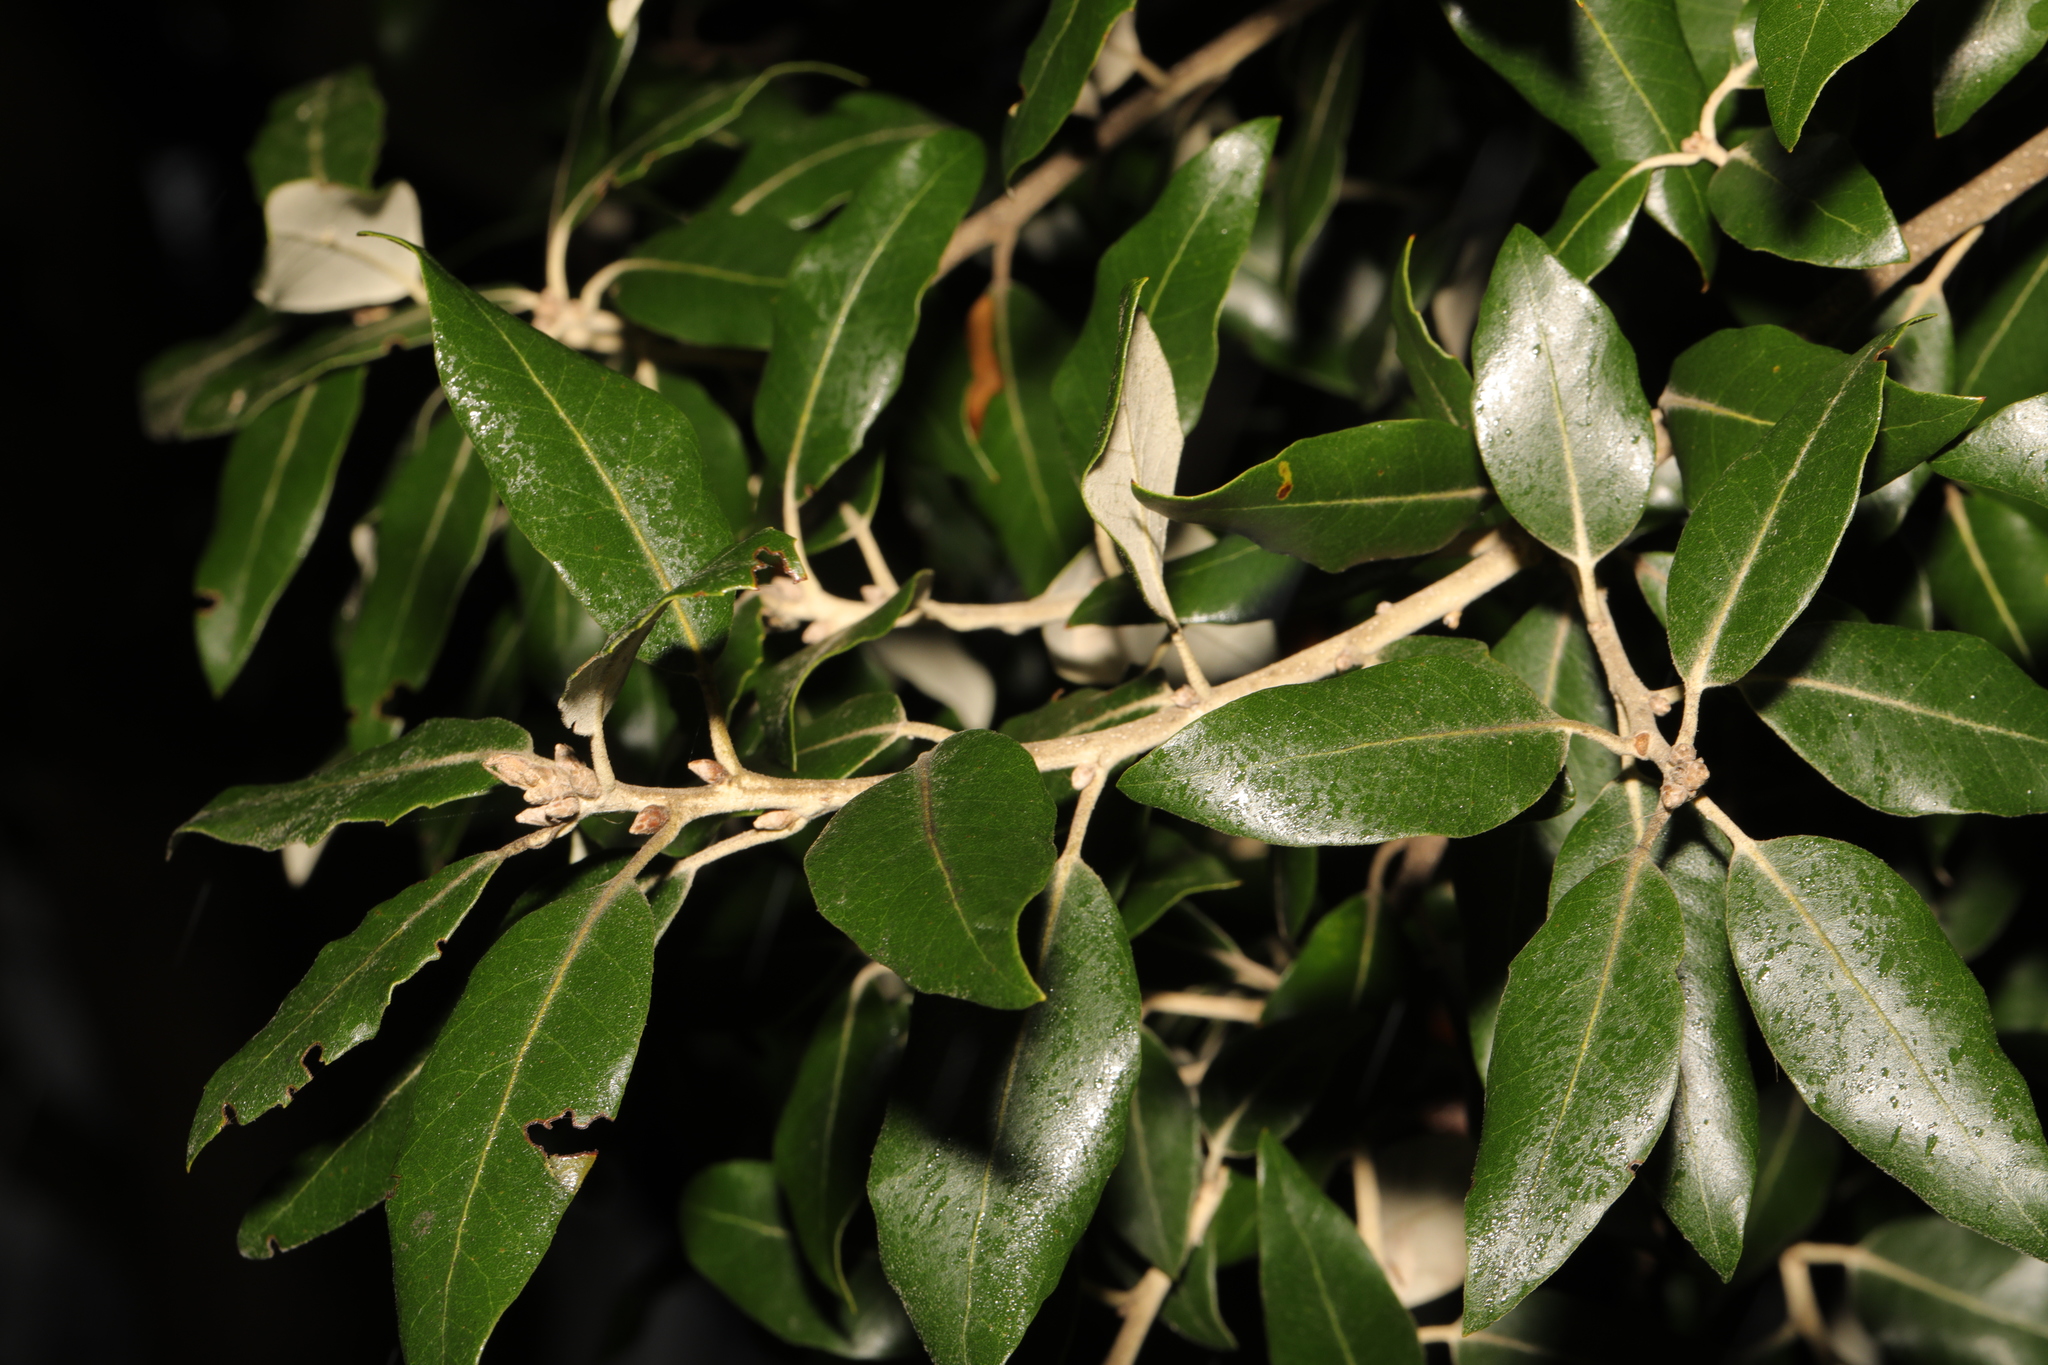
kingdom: Plantae
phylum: Tracheophyta
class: Magnoliopsida
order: Fagales
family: Fagaceae
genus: Quercus
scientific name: Quercus ilex
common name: Evergreen oak
